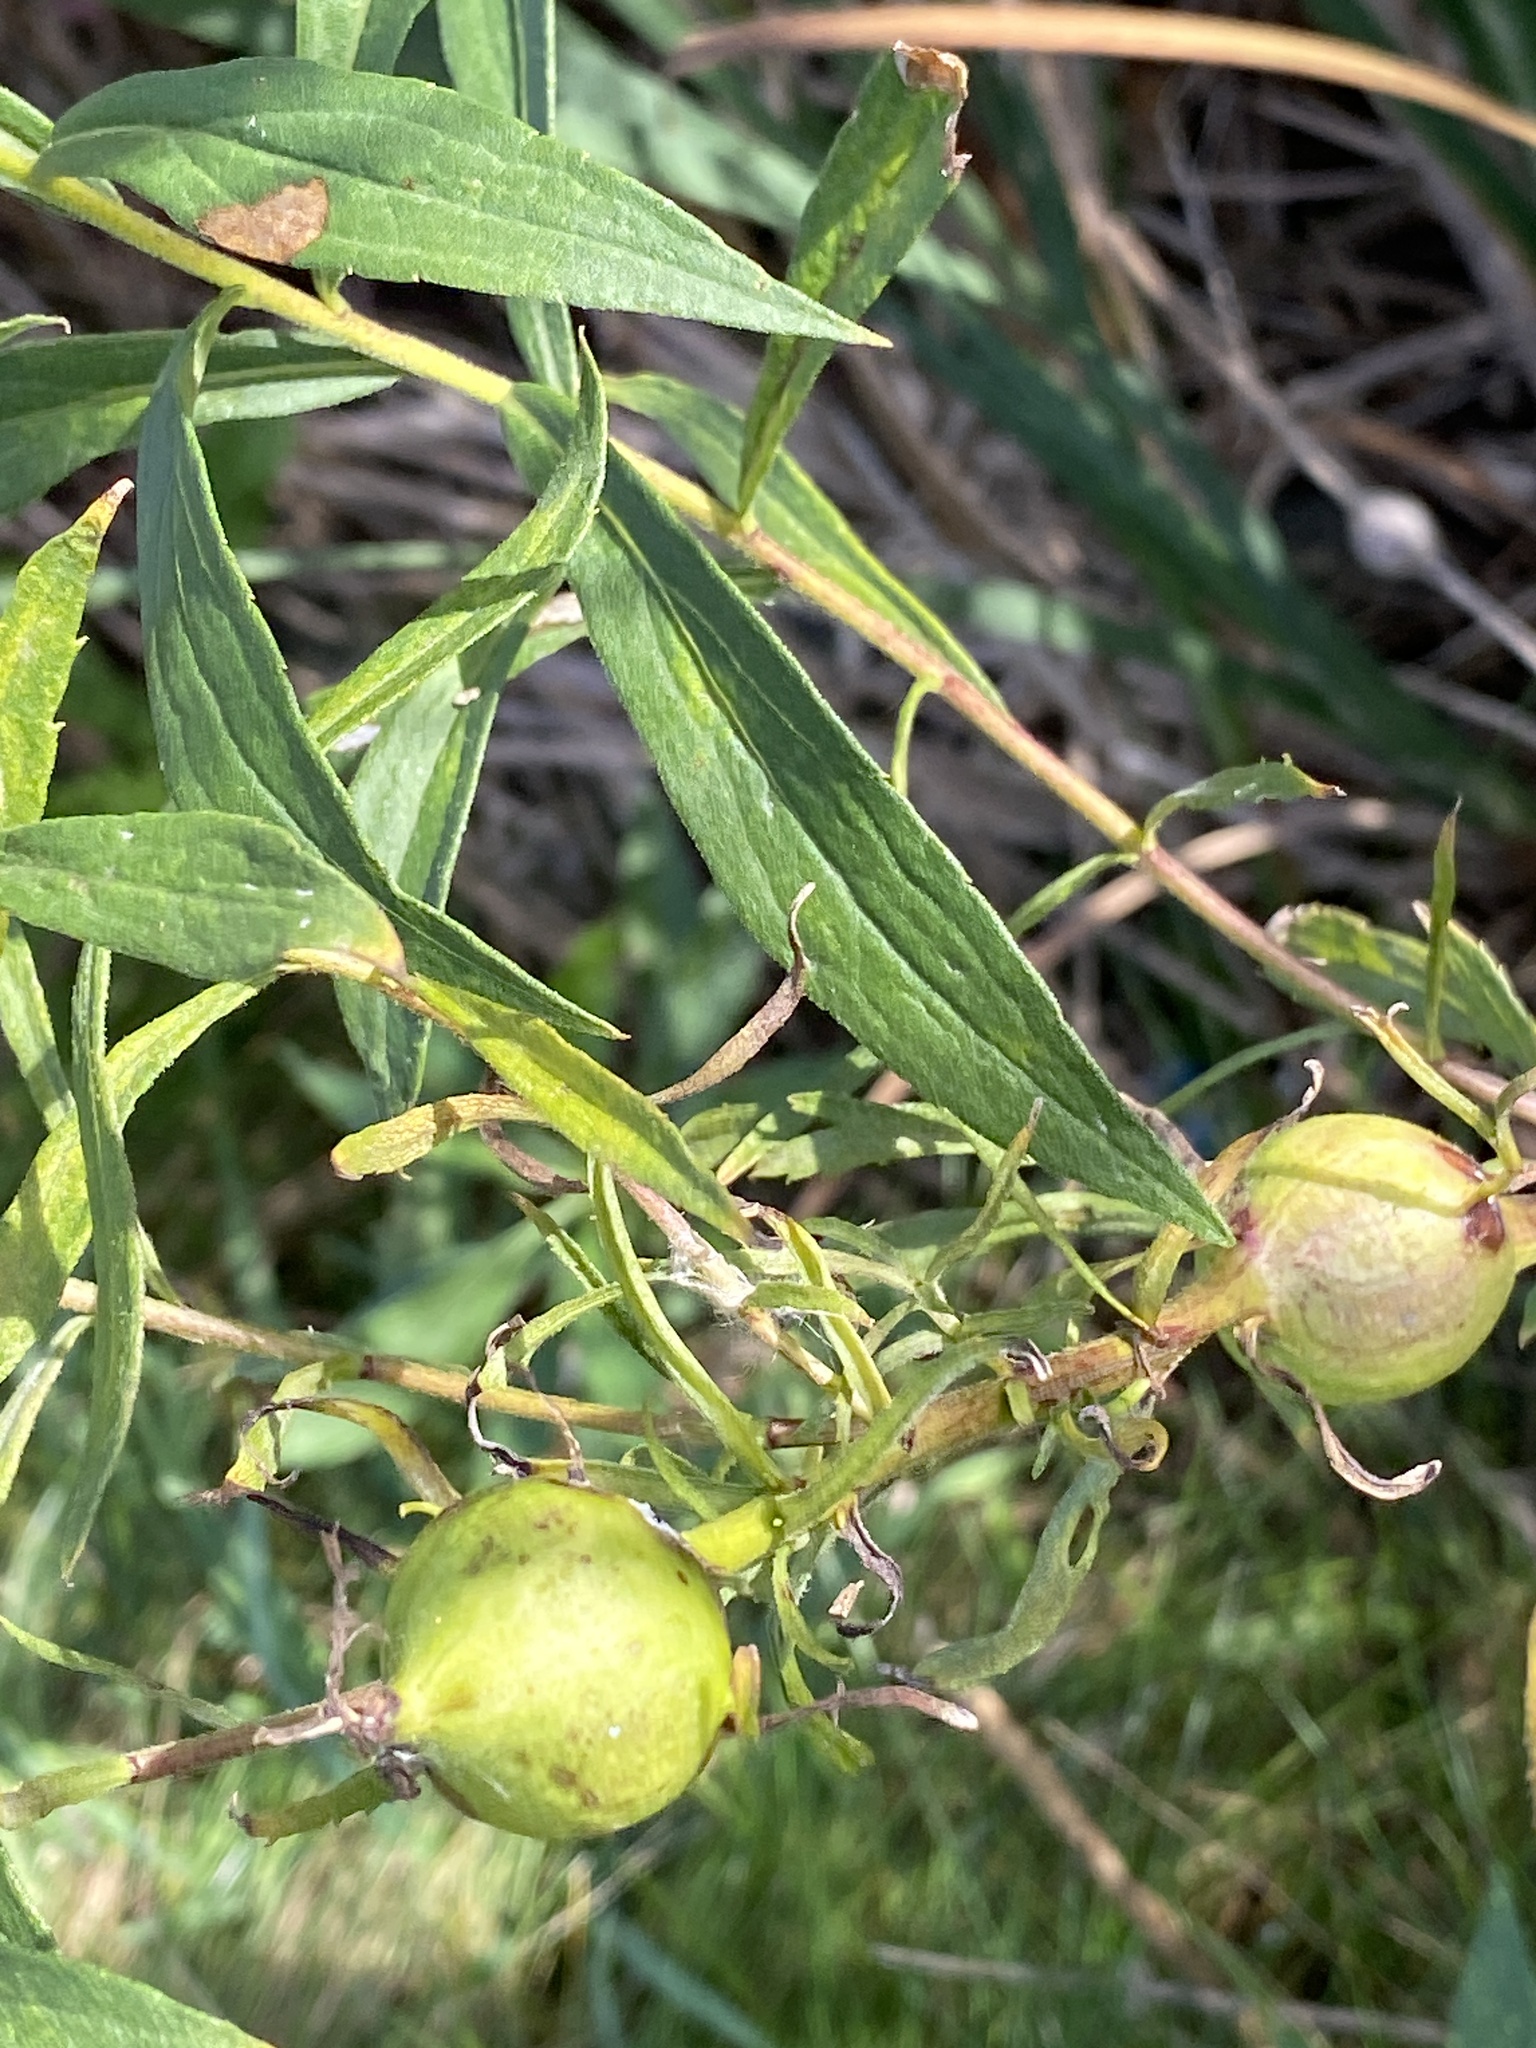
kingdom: Animalia
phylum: Arthropoda
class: Insecta
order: Diptera
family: Tephritidae
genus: Eurosta
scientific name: Eurosta solidaginis
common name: Goldenrod gall fly
